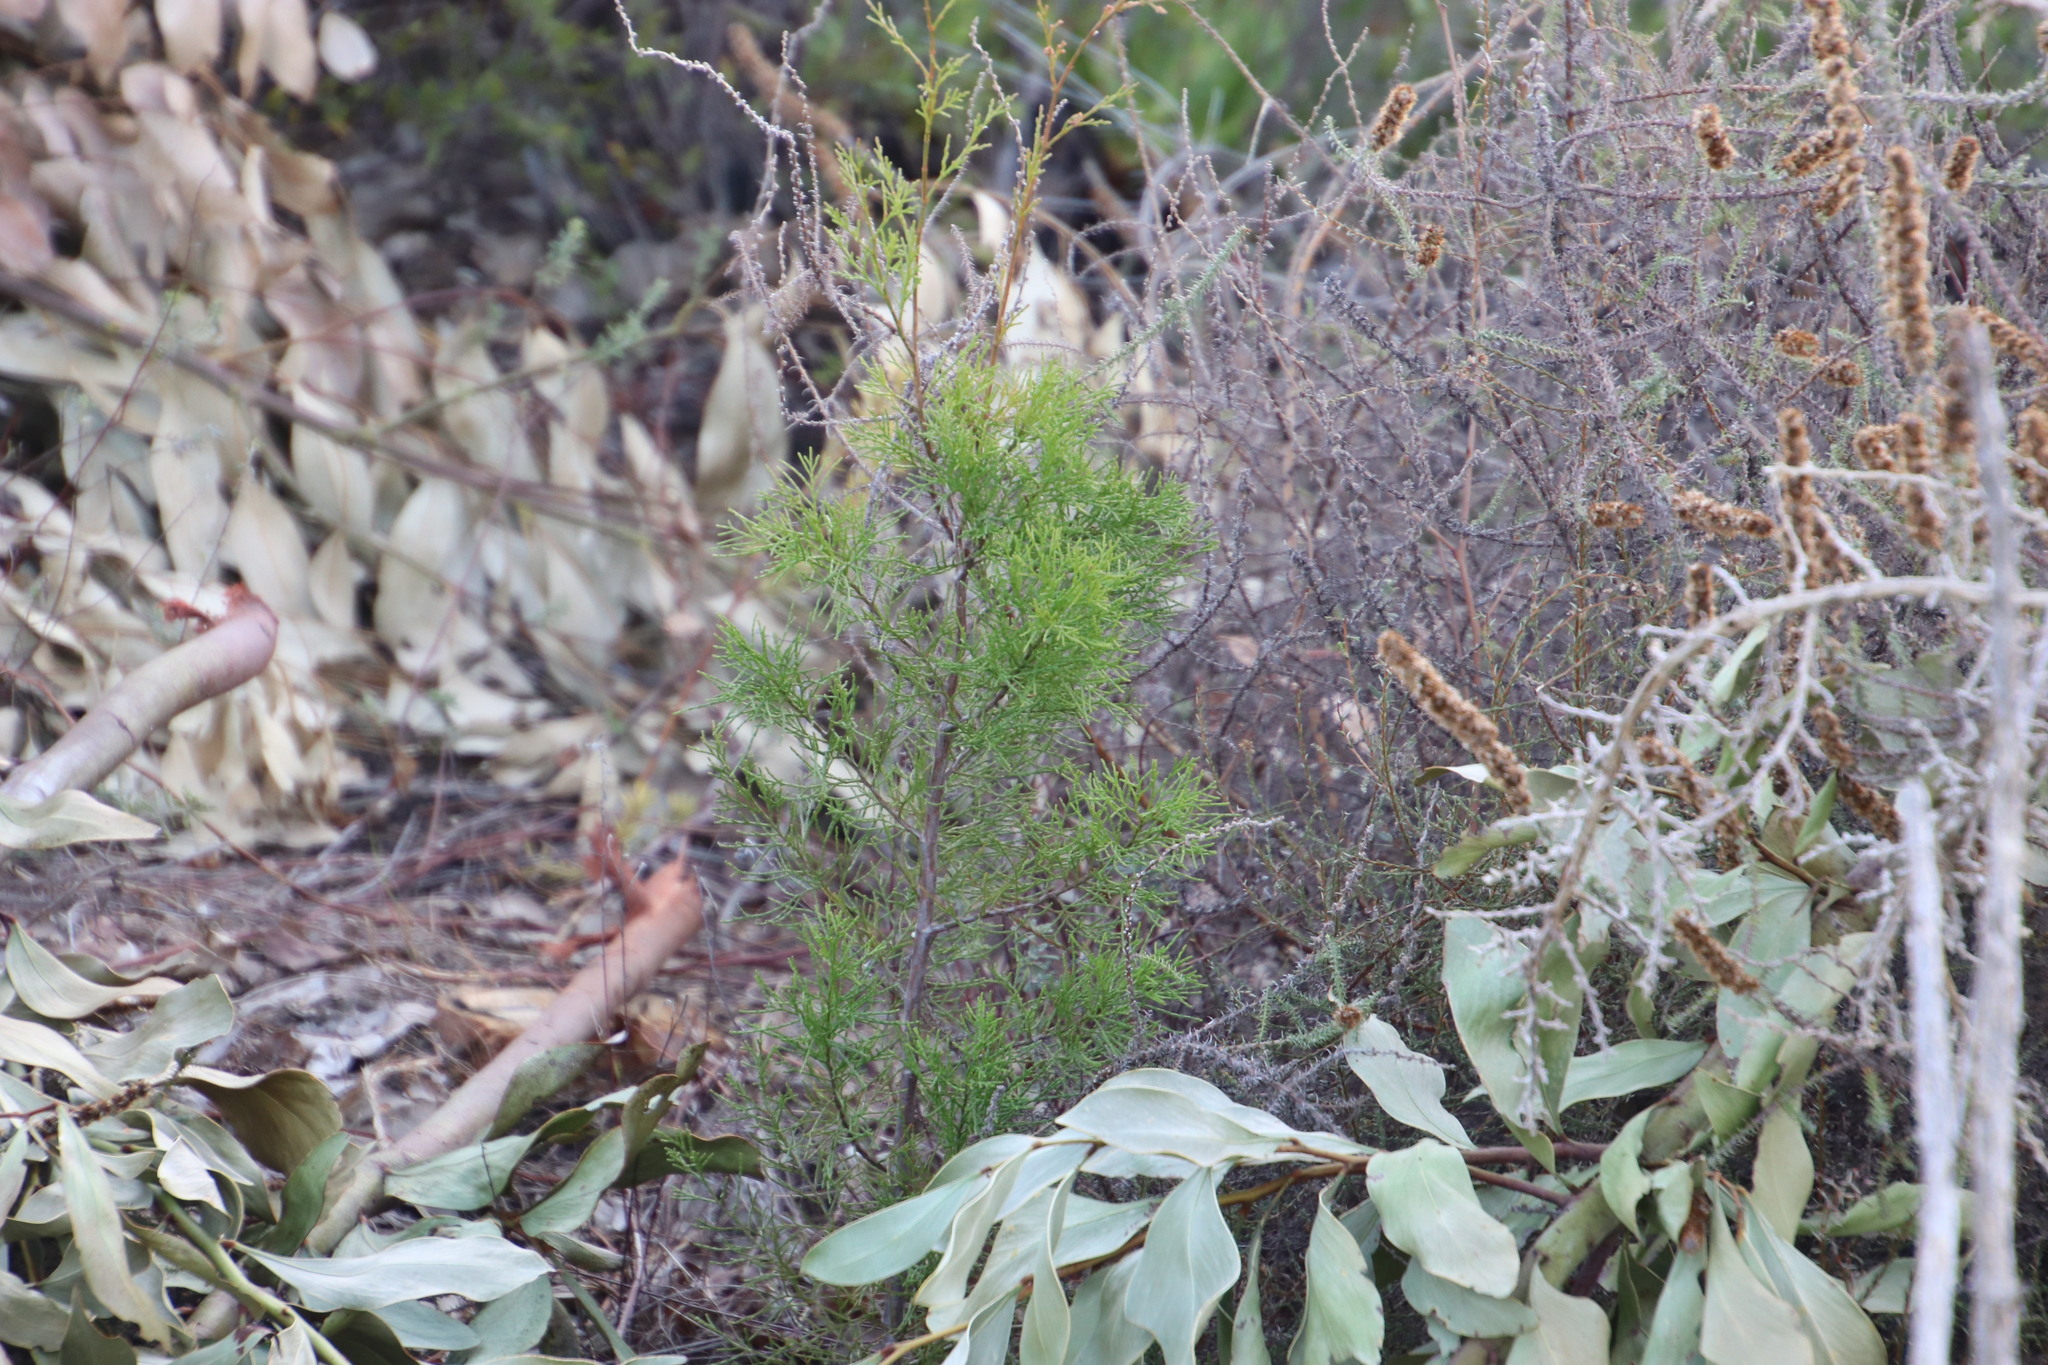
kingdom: Plantae
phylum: Tracheophyta
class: Pinopsida
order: Pinales
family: Cupressaceae
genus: Callitris
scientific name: Callitris rhomboidea
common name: Illawara mountain pine
